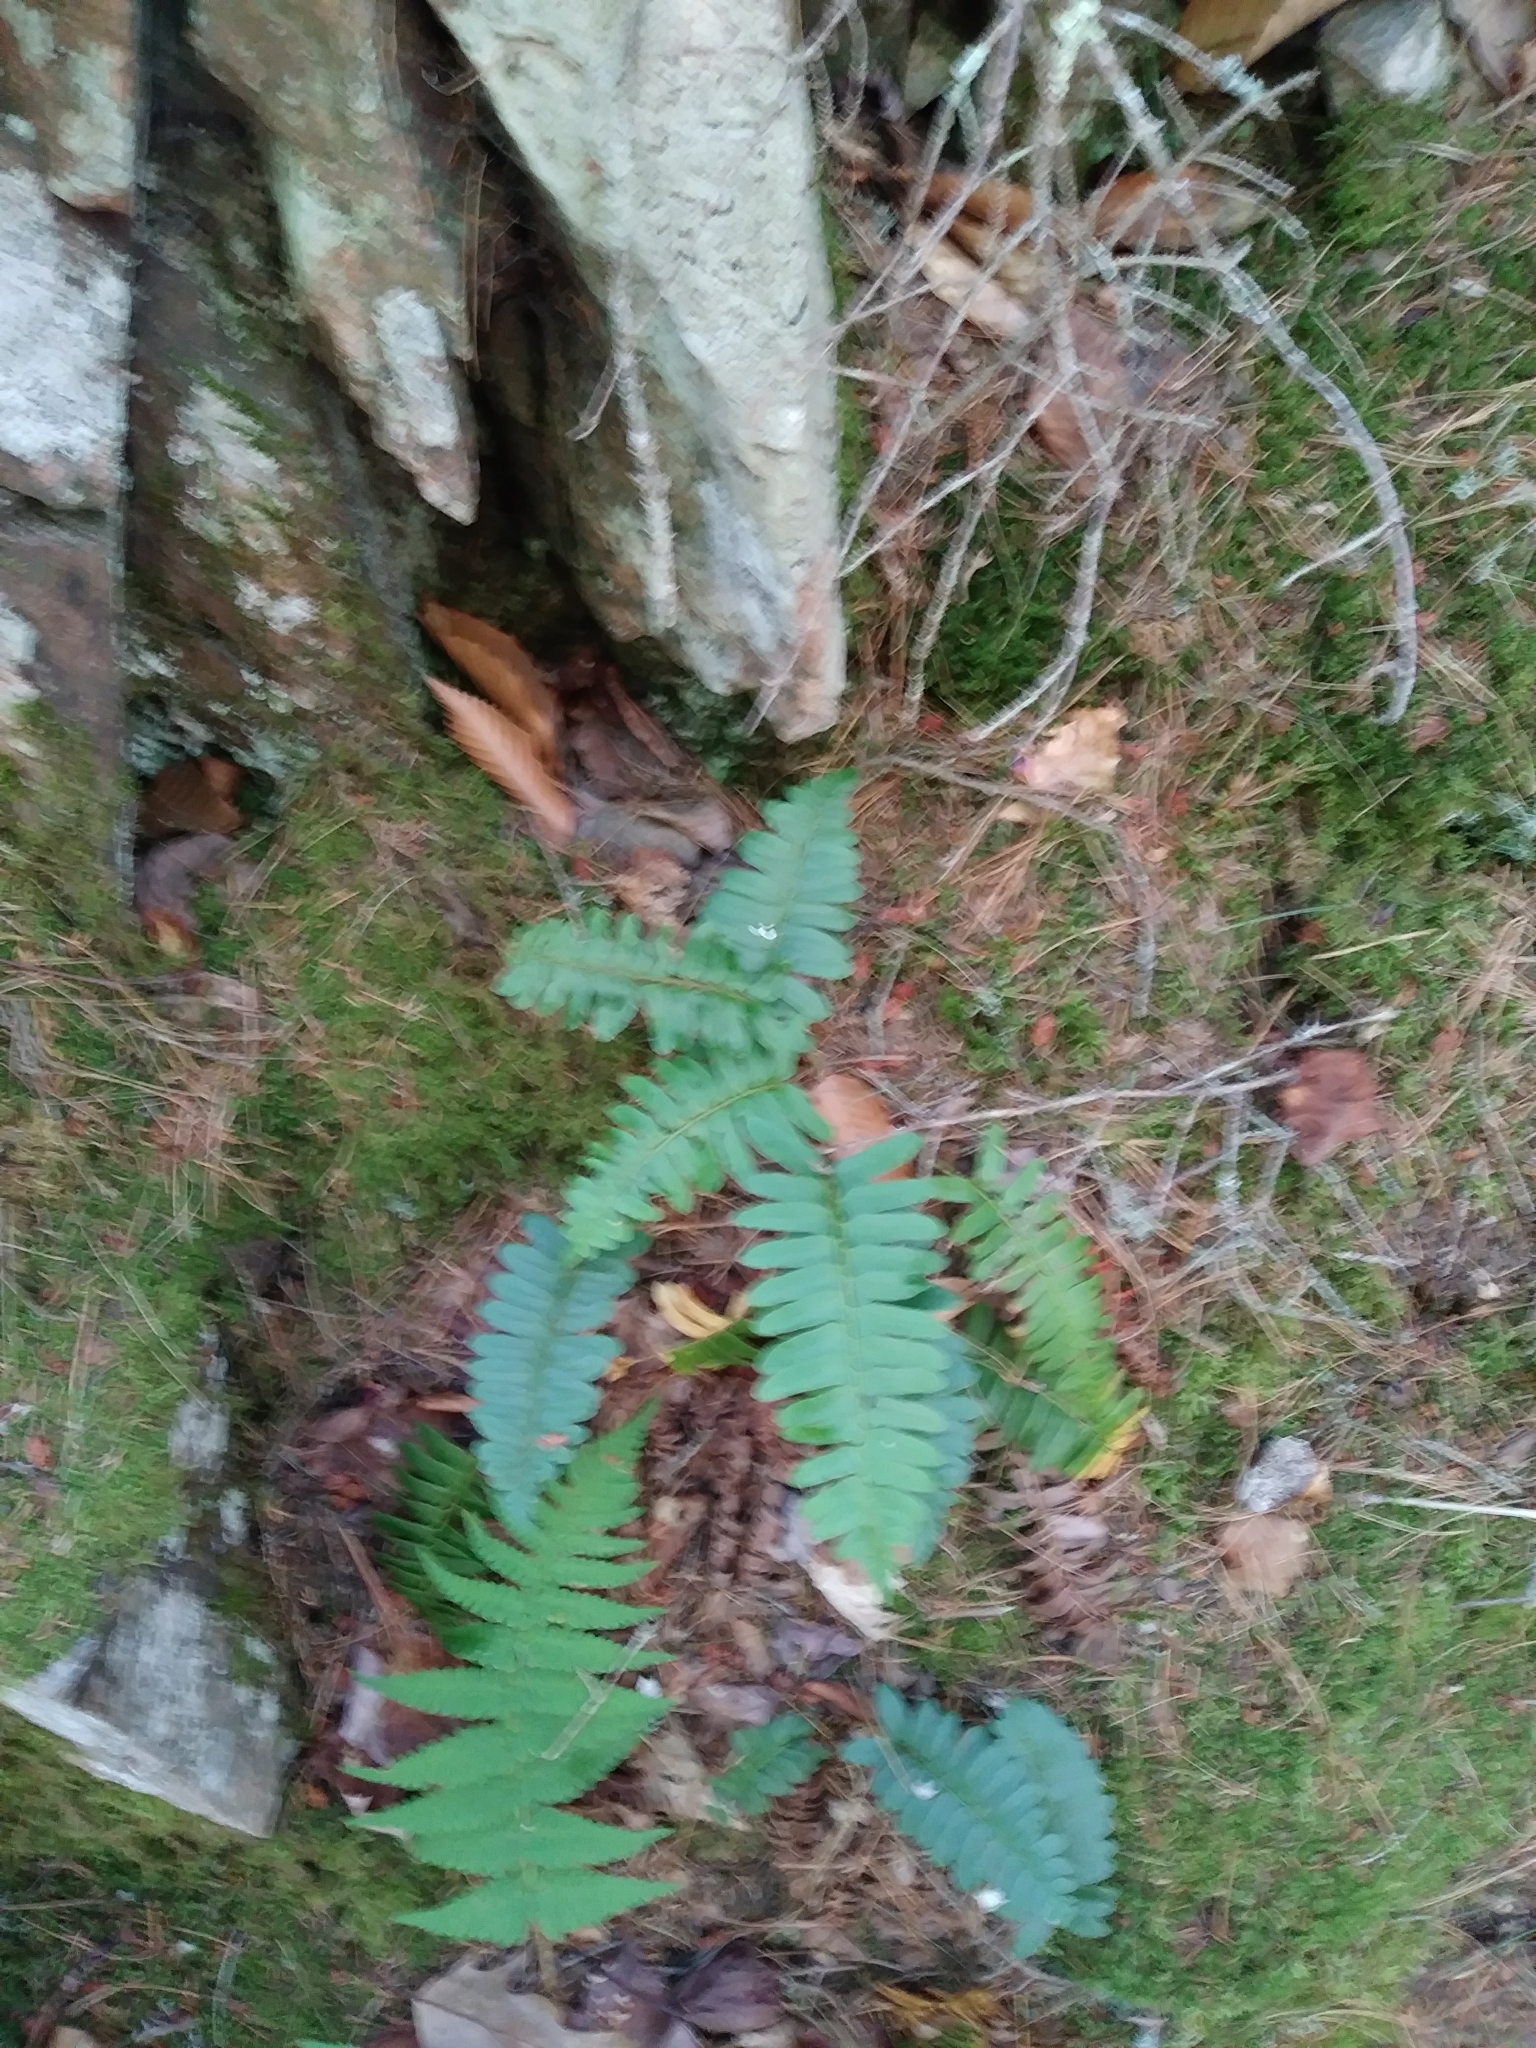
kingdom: Plantae
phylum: Tracheophyta
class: Polypodiopsida
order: Polypodiales
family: Dryopteridaceae
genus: Polystichum
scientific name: Polystichum acrostichoides
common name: Christmas fern
